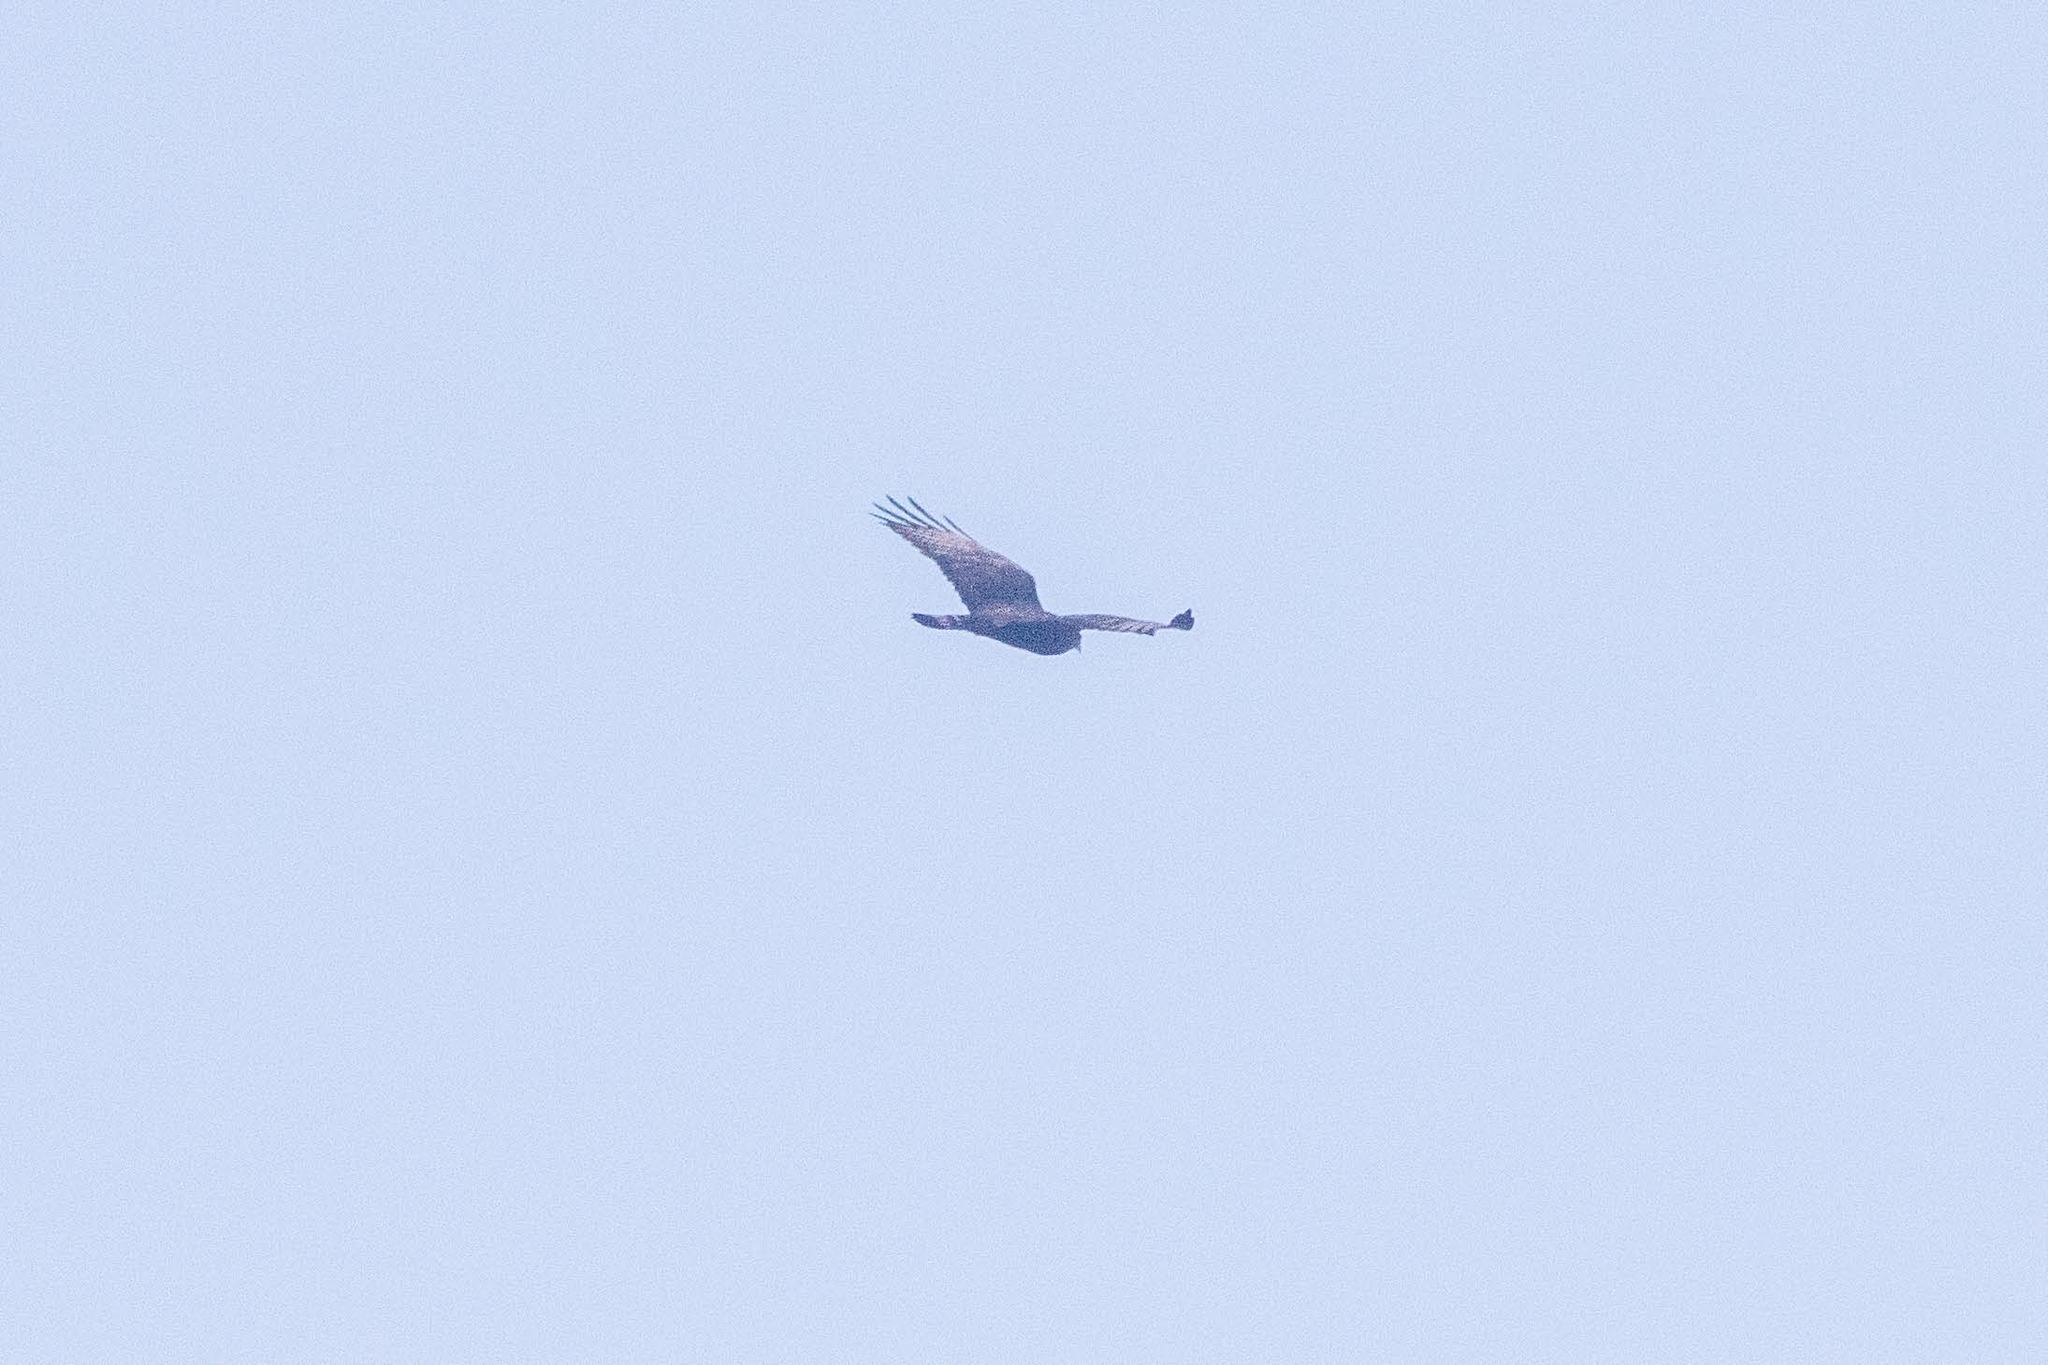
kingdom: Animalia
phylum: Chordata
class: Aves
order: Accipitriformes
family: Accipitridae
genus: Buteo
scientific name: Buteo albonotatus
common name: Zone-tailed hawk
